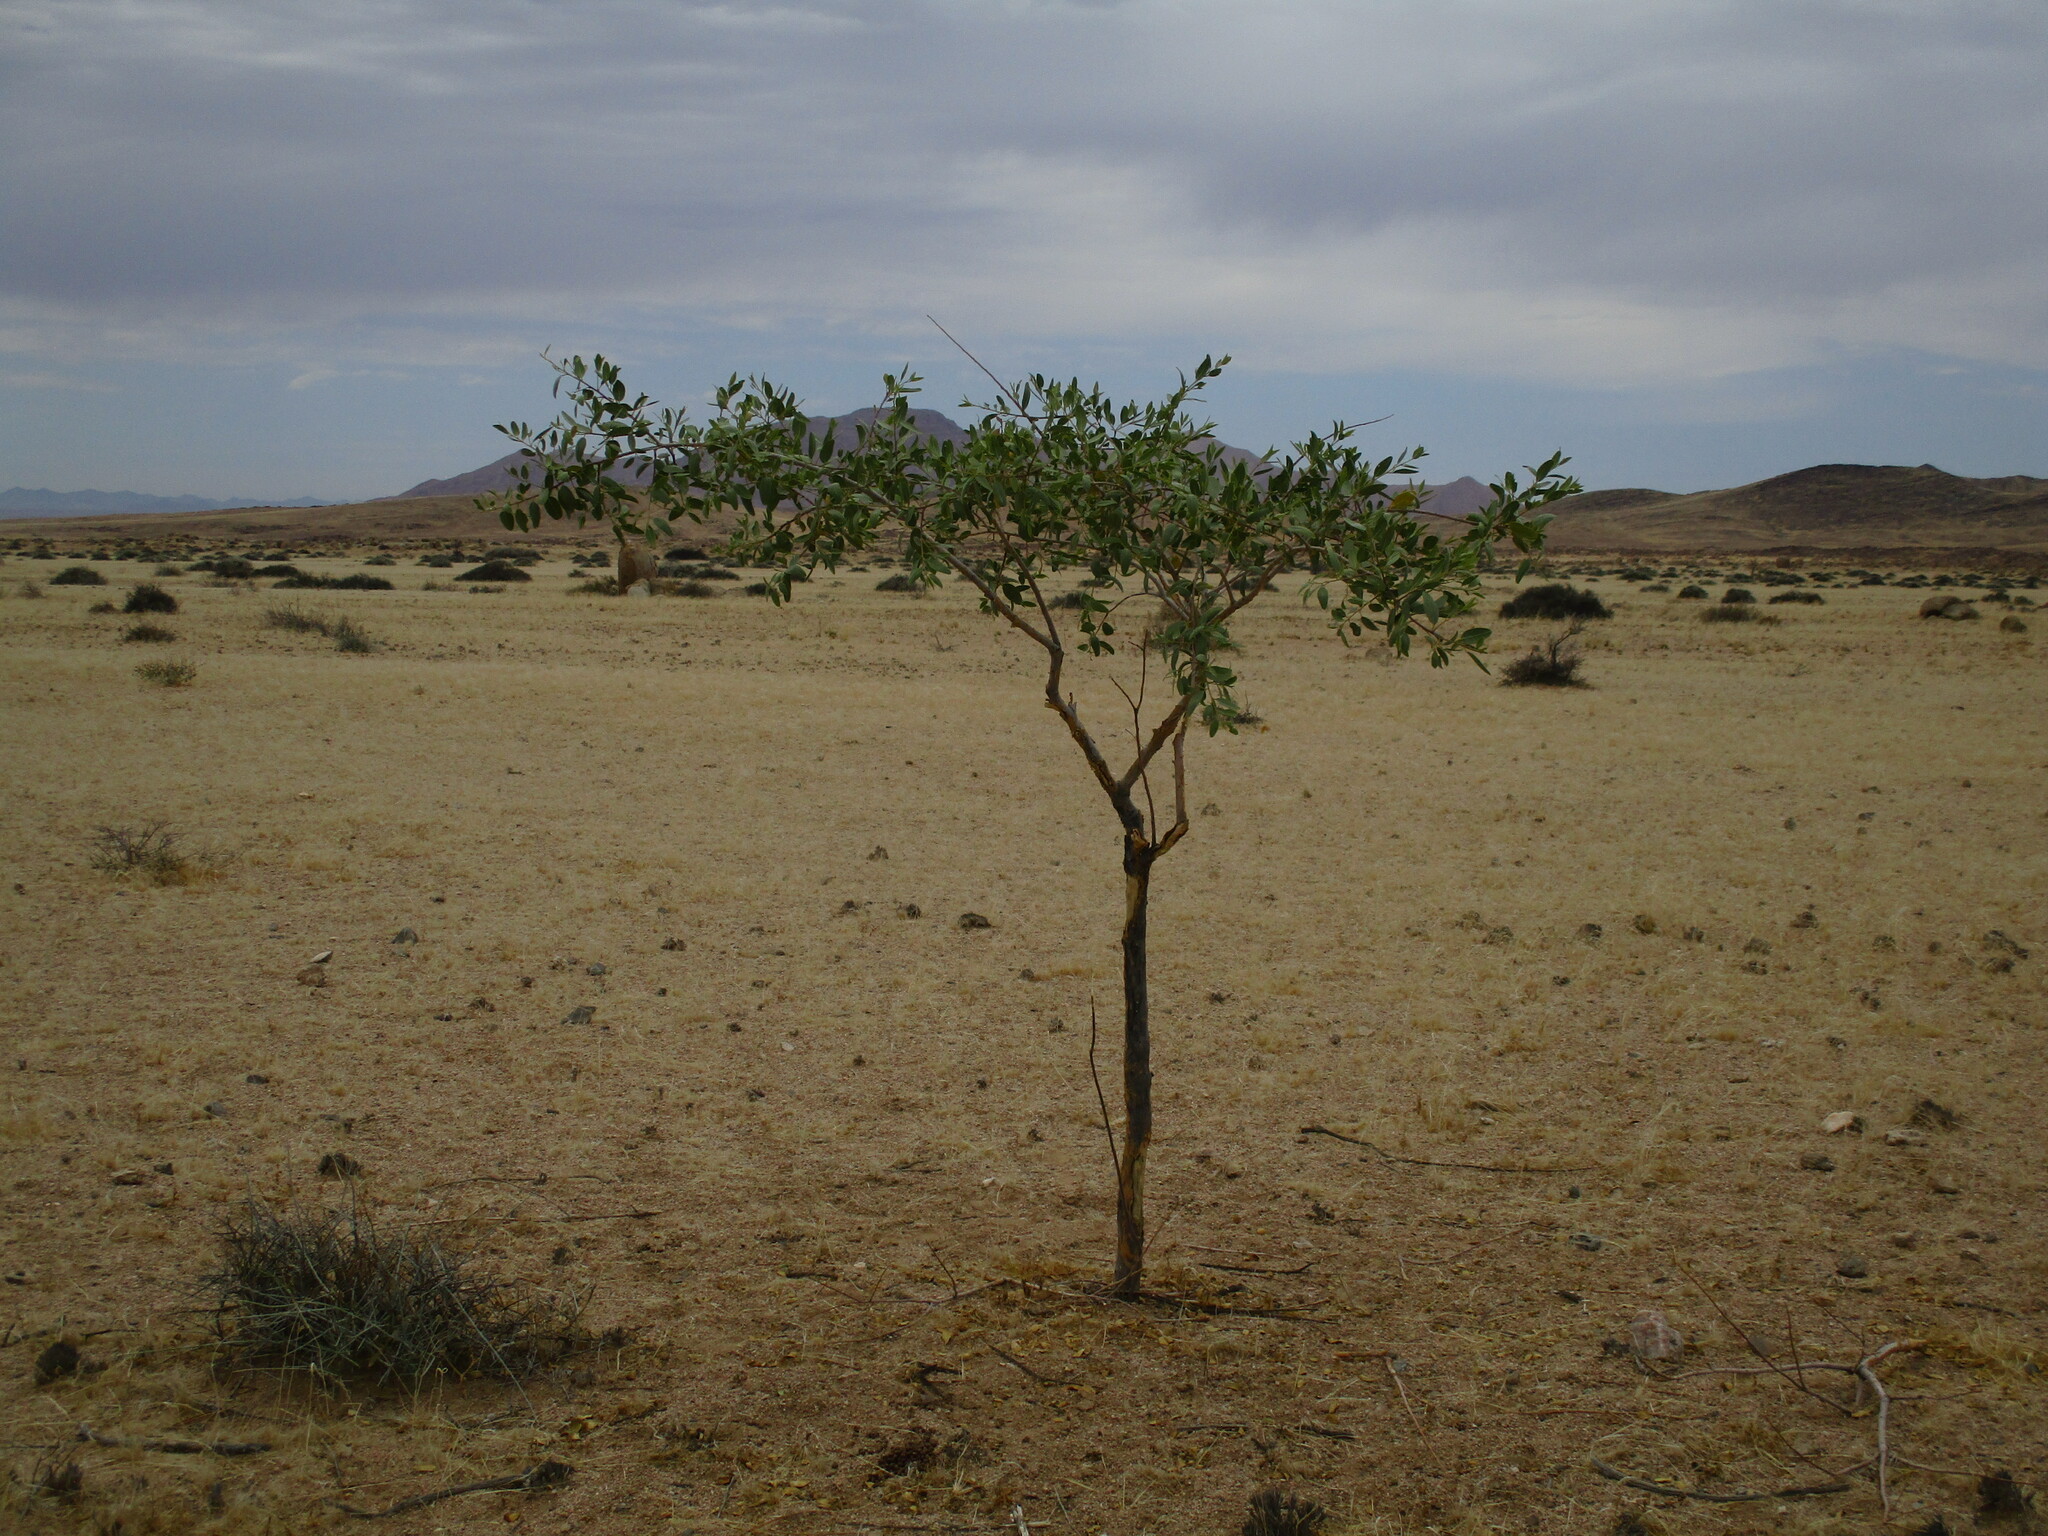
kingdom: Plantae
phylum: Tracheophyta
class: Magnoliopsida
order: Brassicales
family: Capparaceae
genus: Maerua
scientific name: Maerua schinzii
